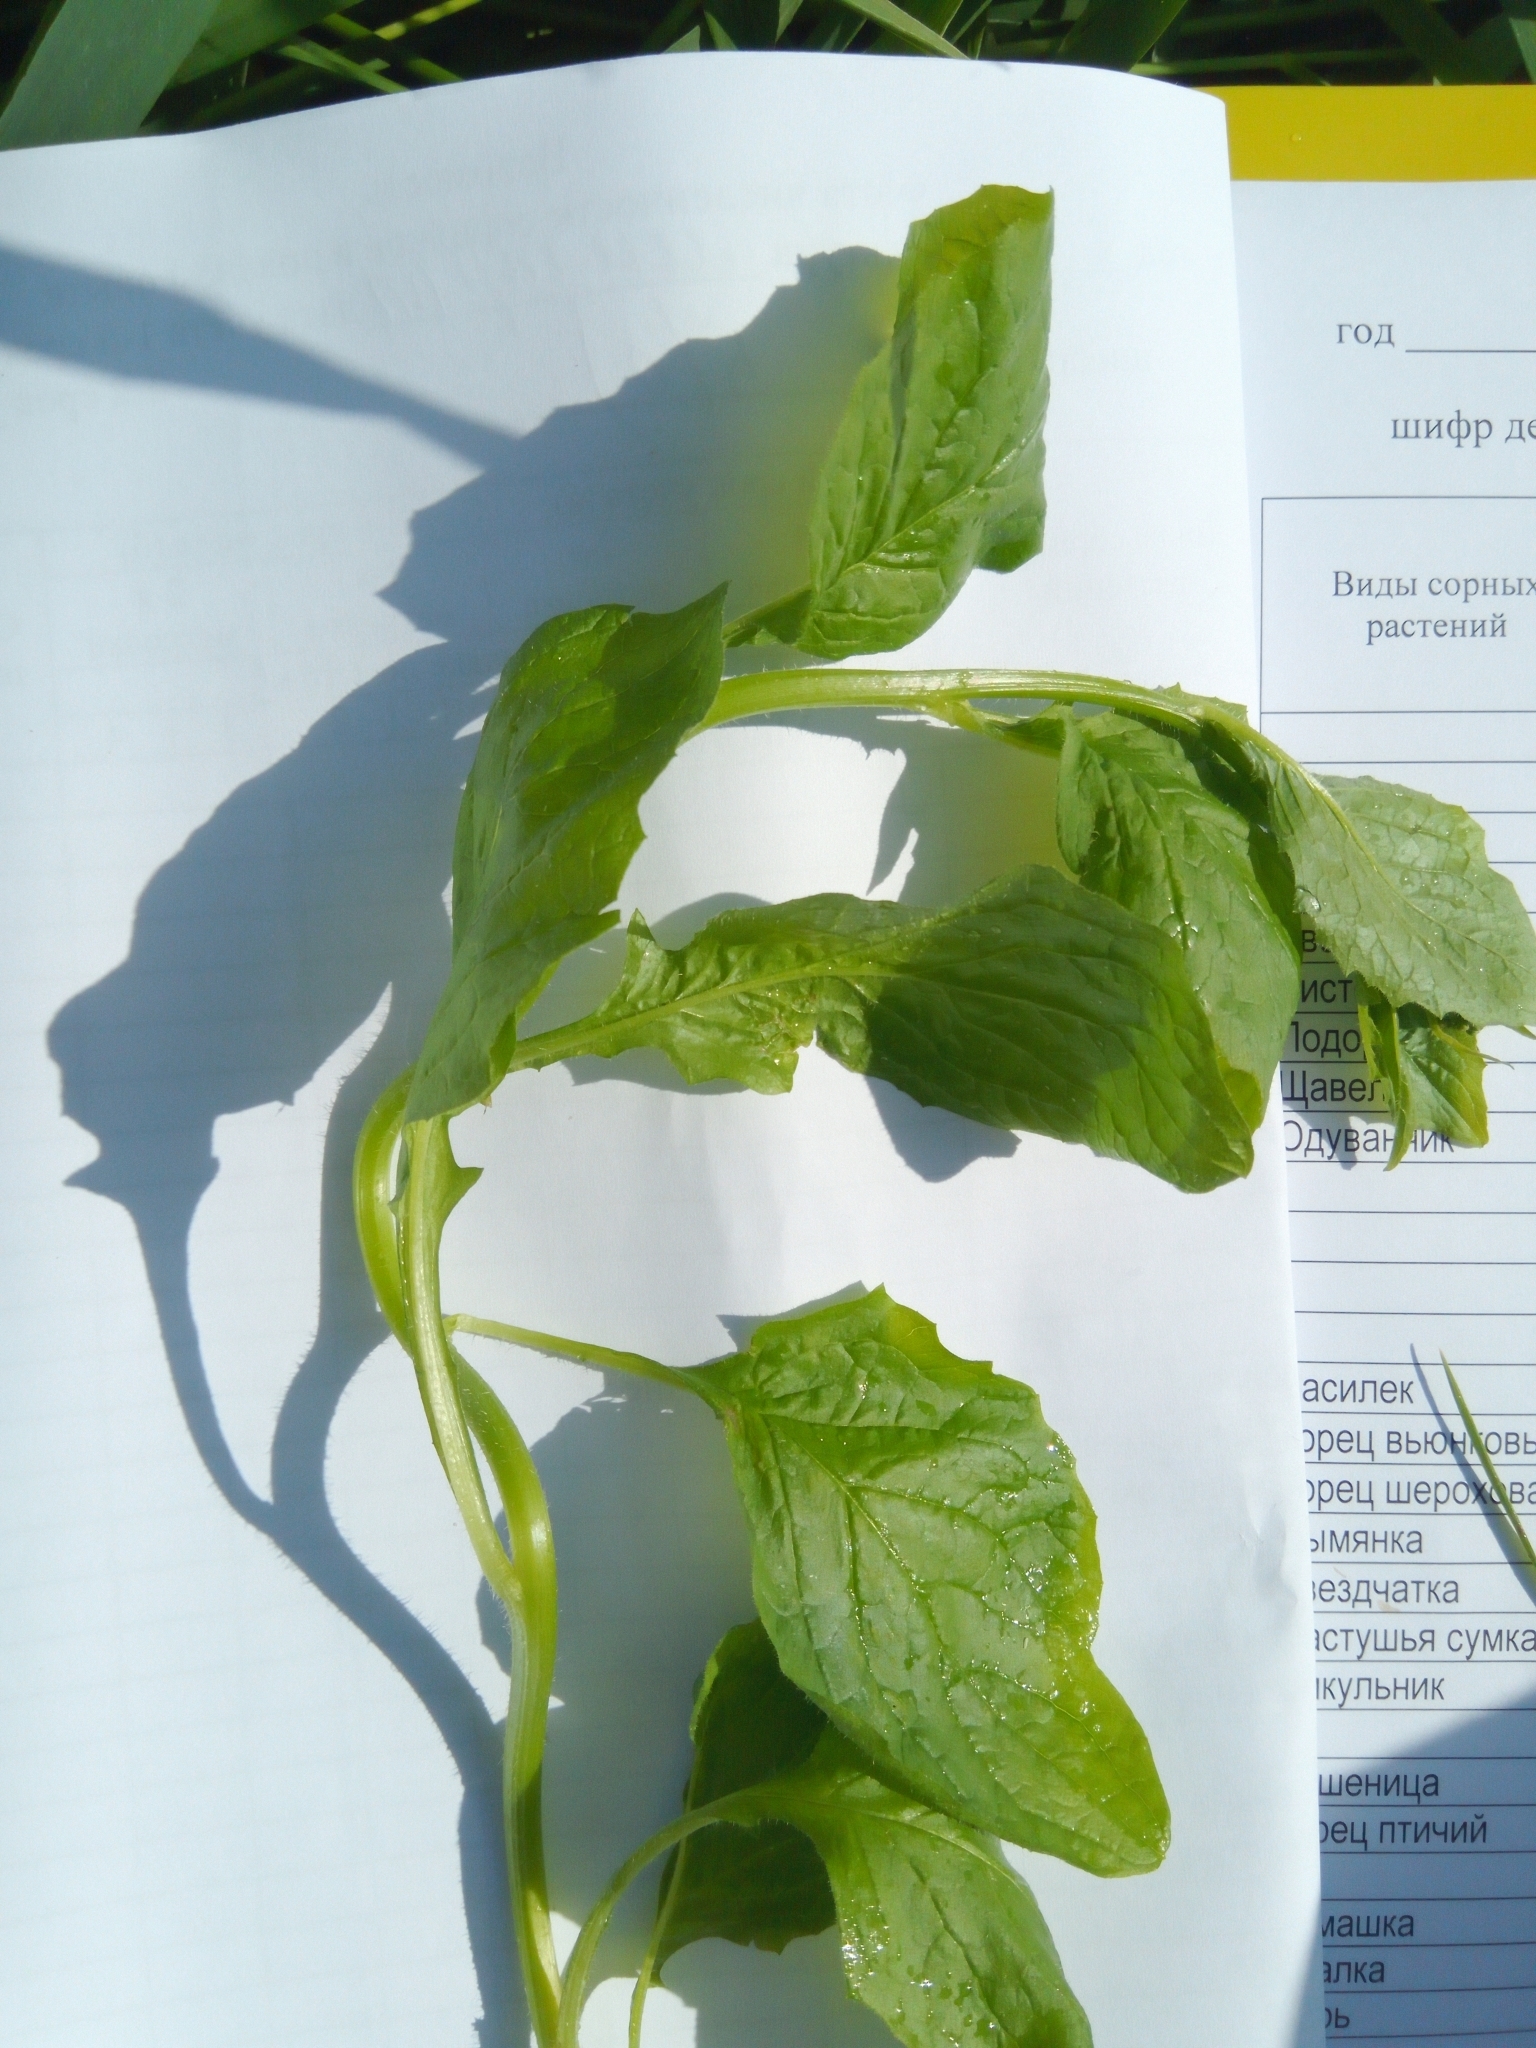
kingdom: Plantae
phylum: Tracheophyta
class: Magnoliopsida
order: Asterales
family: Asteraceae
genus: Lapsana
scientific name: Lapsana communis
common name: Nipplewort
